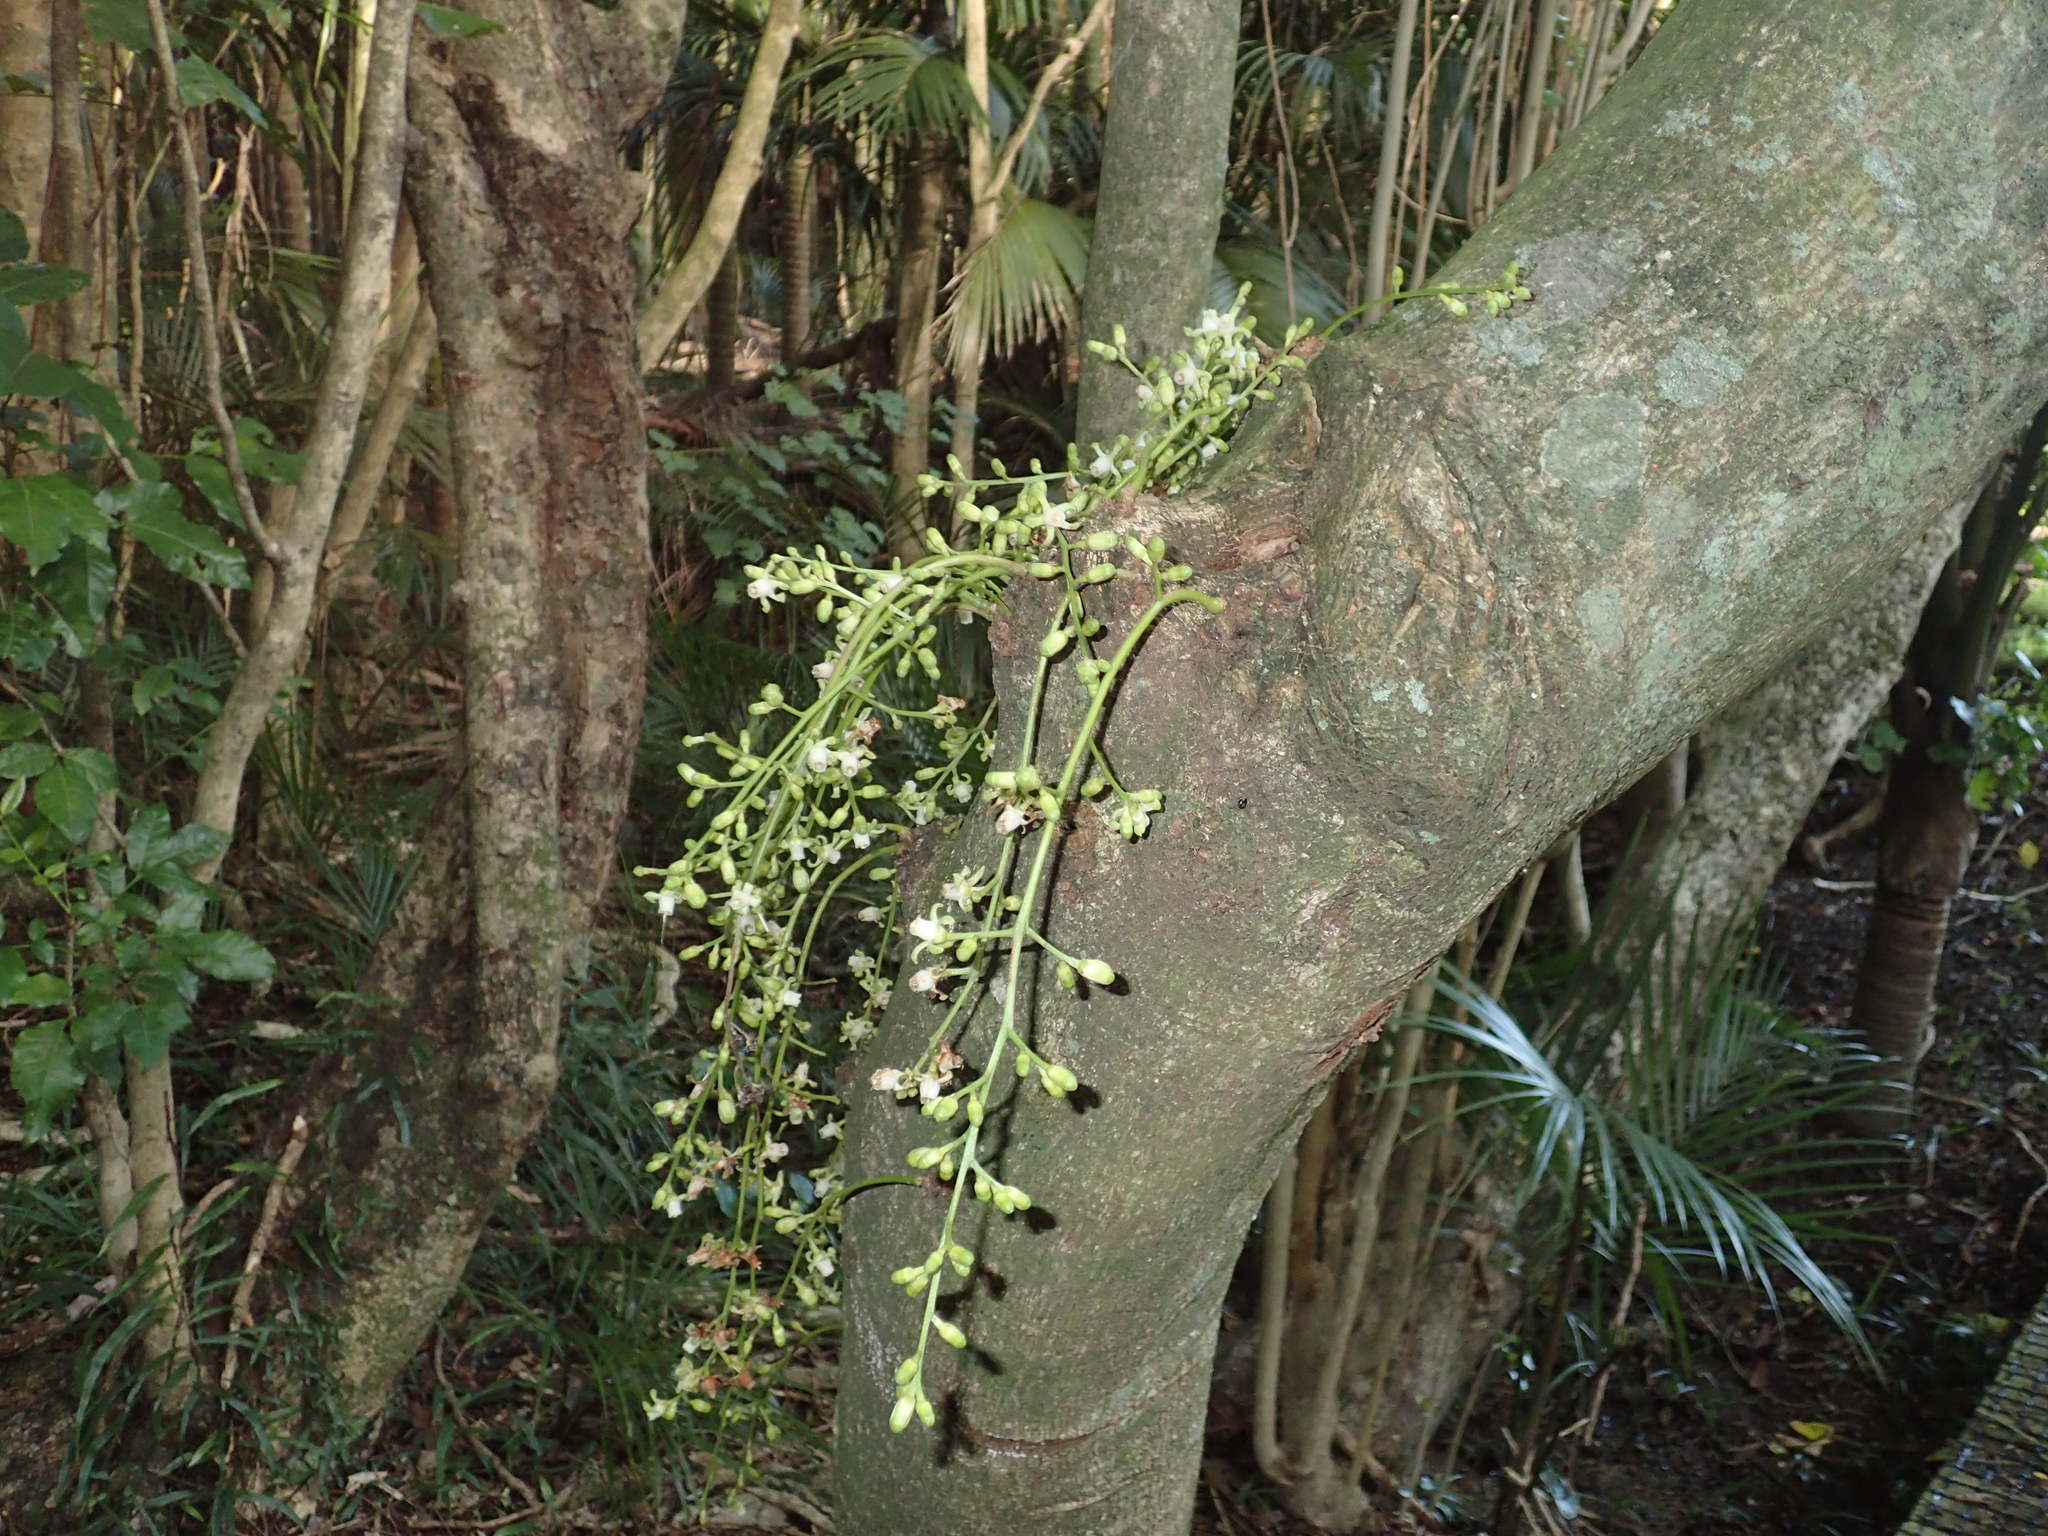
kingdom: Plantae
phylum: Tracheophyta
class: Magnoliopsida
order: Sapindales
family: Meliaceae
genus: Didymocheton
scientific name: Didymocheton spectabilis
